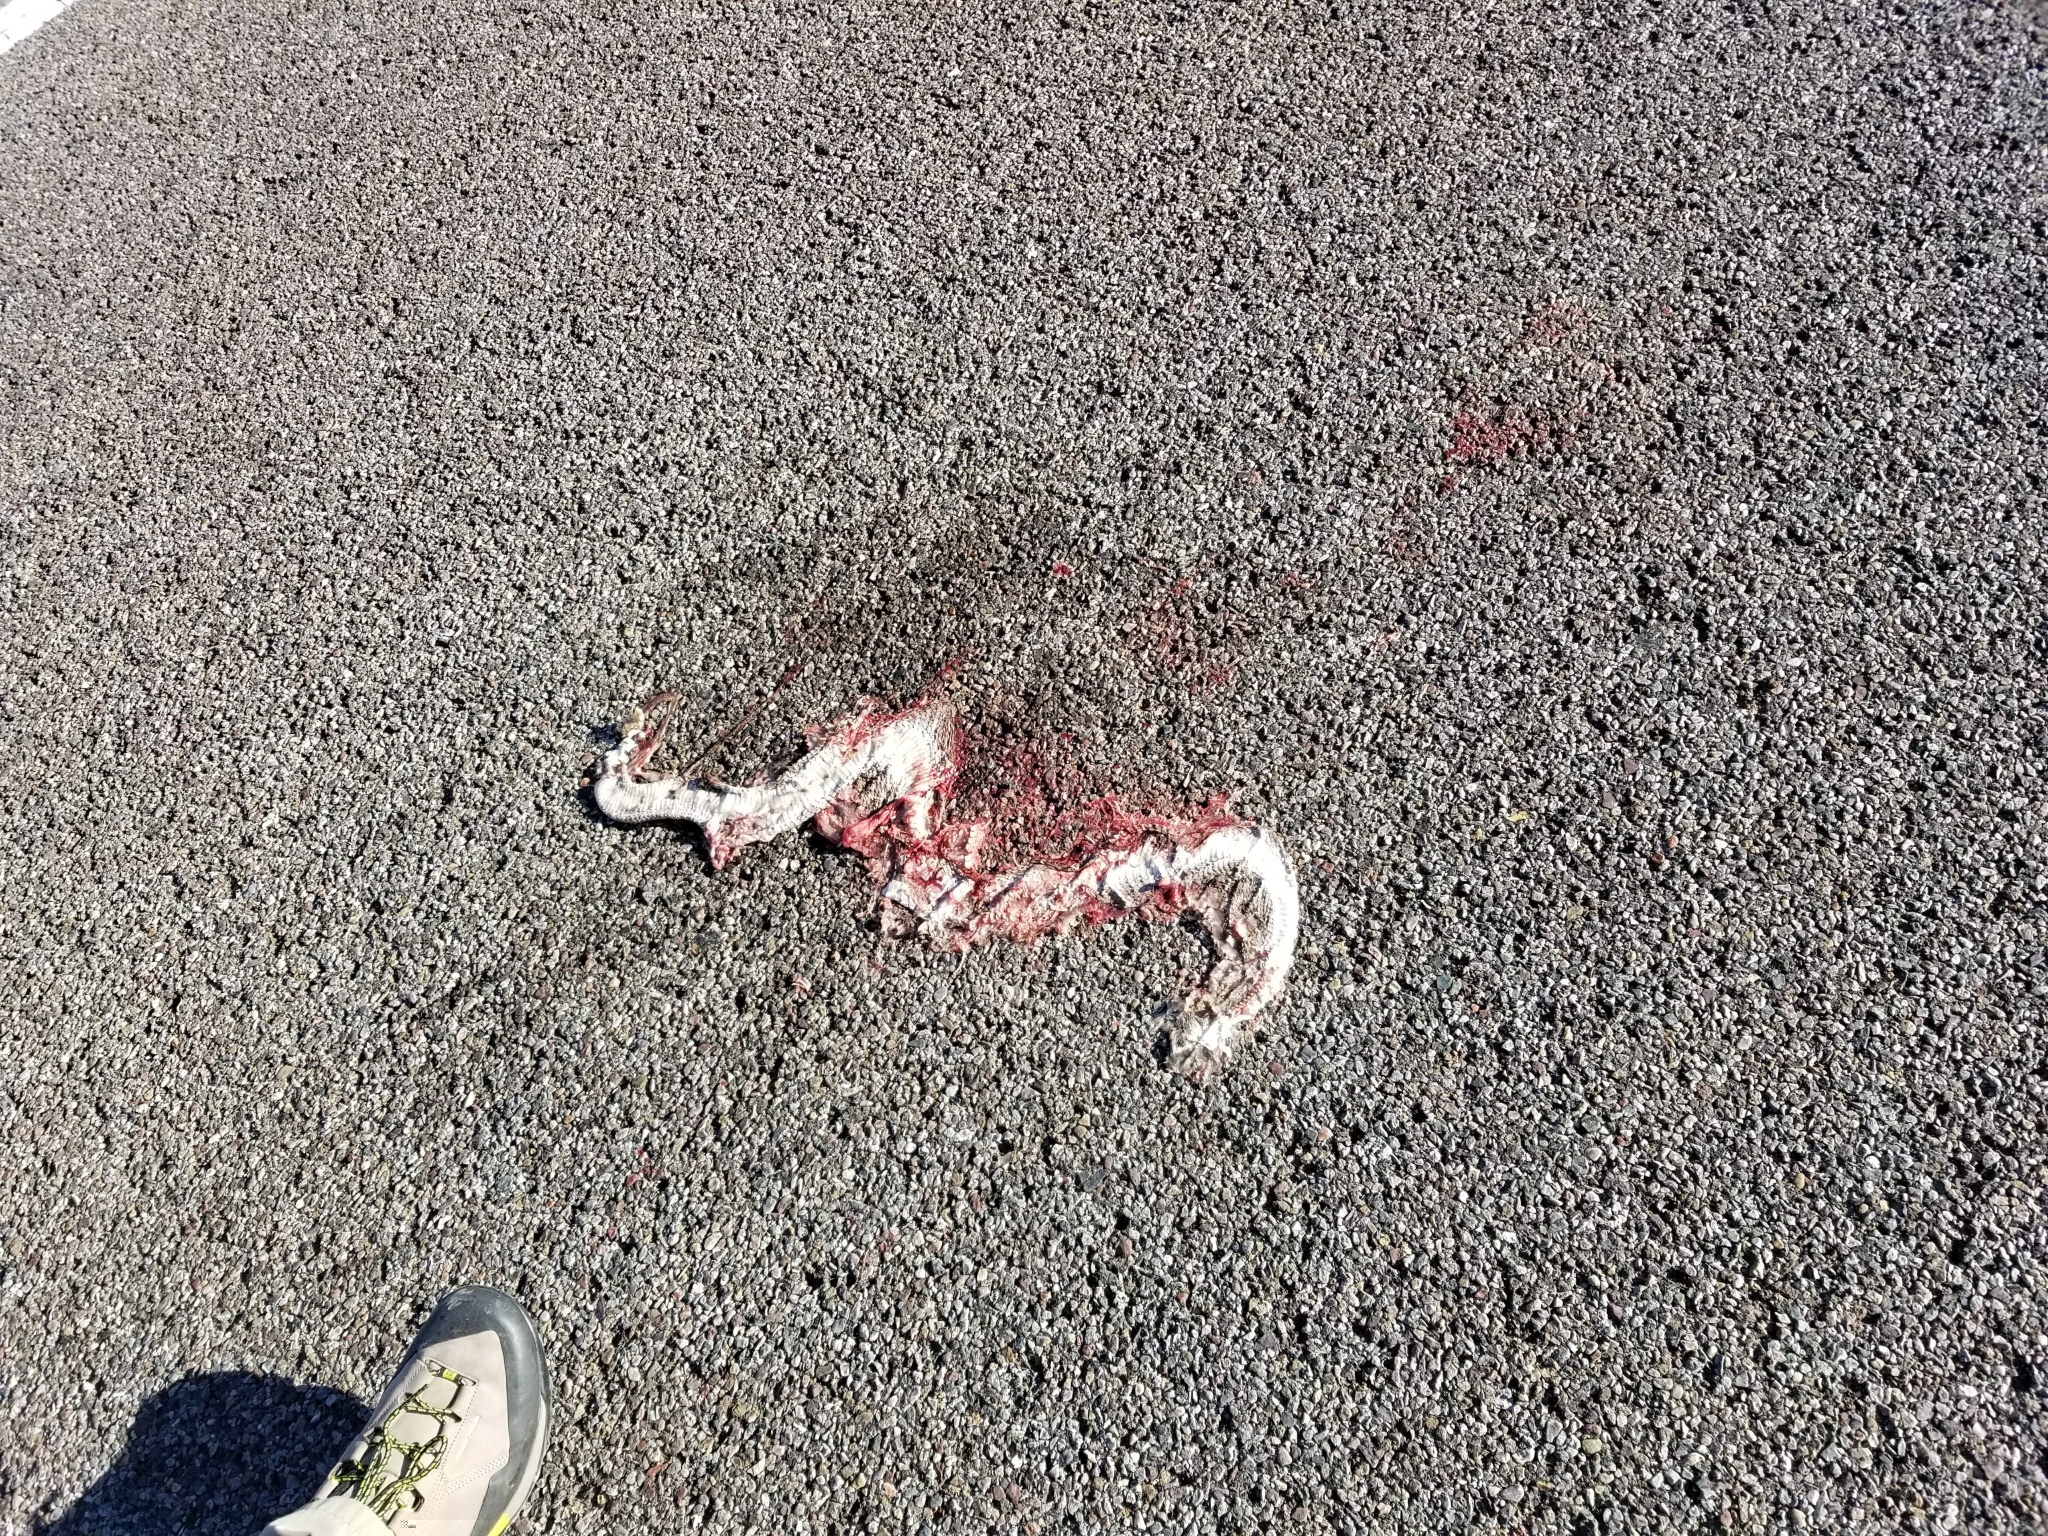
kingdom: Animalia
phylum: Chordata
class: Squamata
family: Viperidae
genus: Crotalus
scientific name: Crotalus atrox
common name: Western diamond-backed rattlesnake
